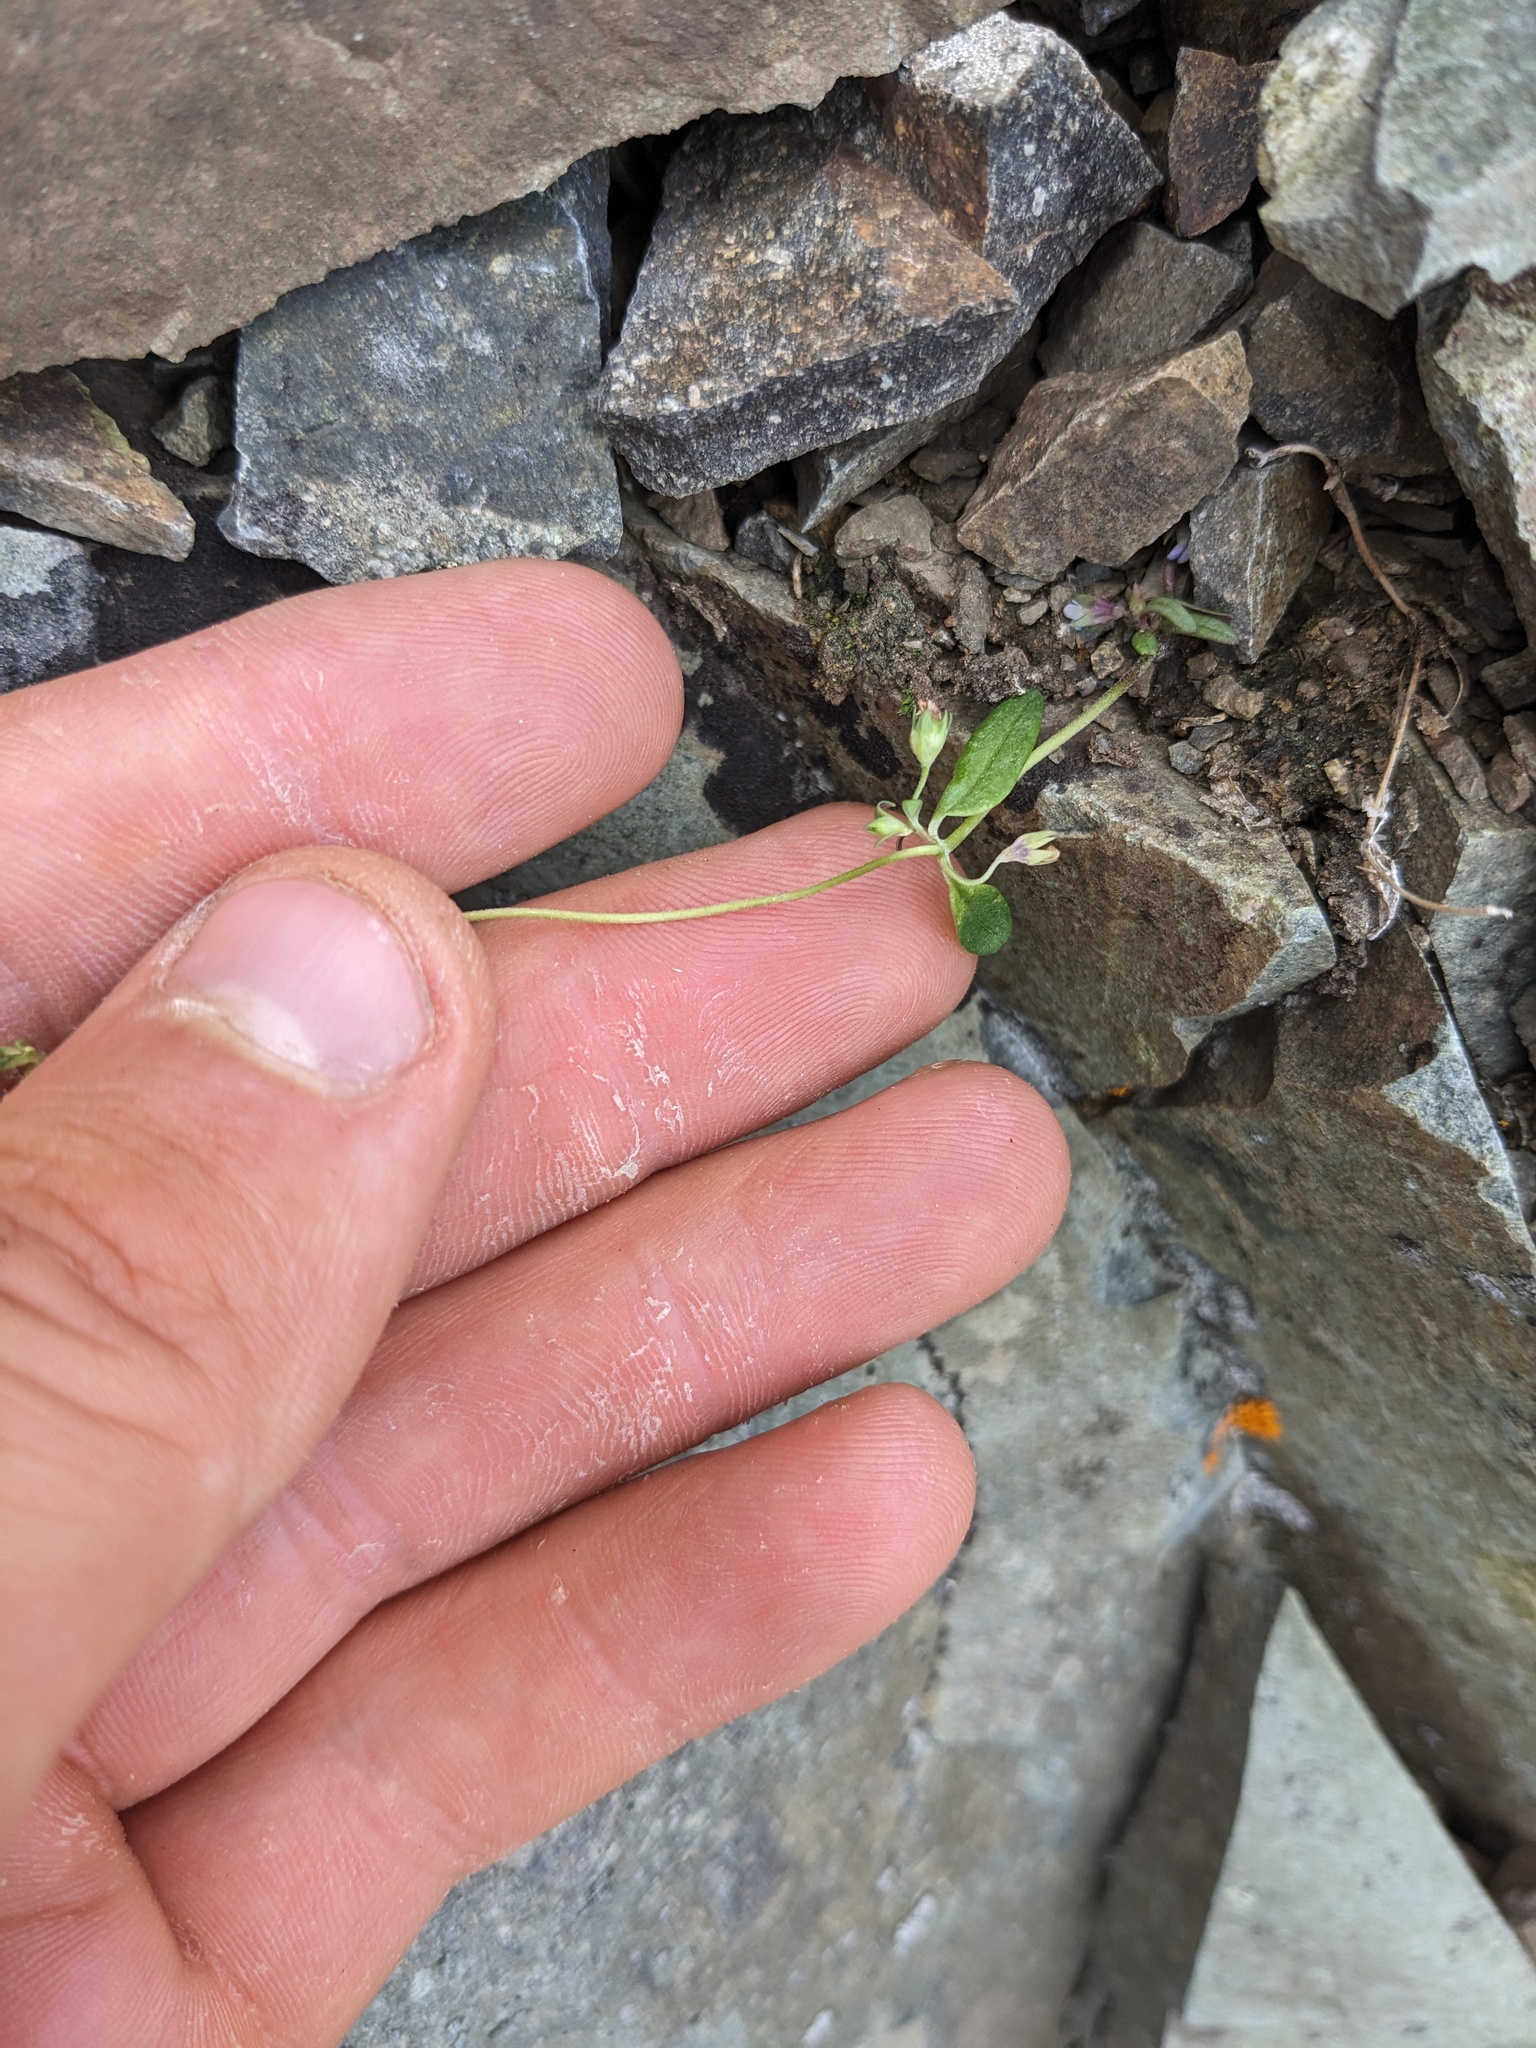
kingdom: Plantae
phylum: Tracheophyta
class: Magnoliopsida
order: Lamiales
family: Plantaginaceae
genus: Collinsia
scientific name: Collinsia parviflora
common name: Blue-lips
